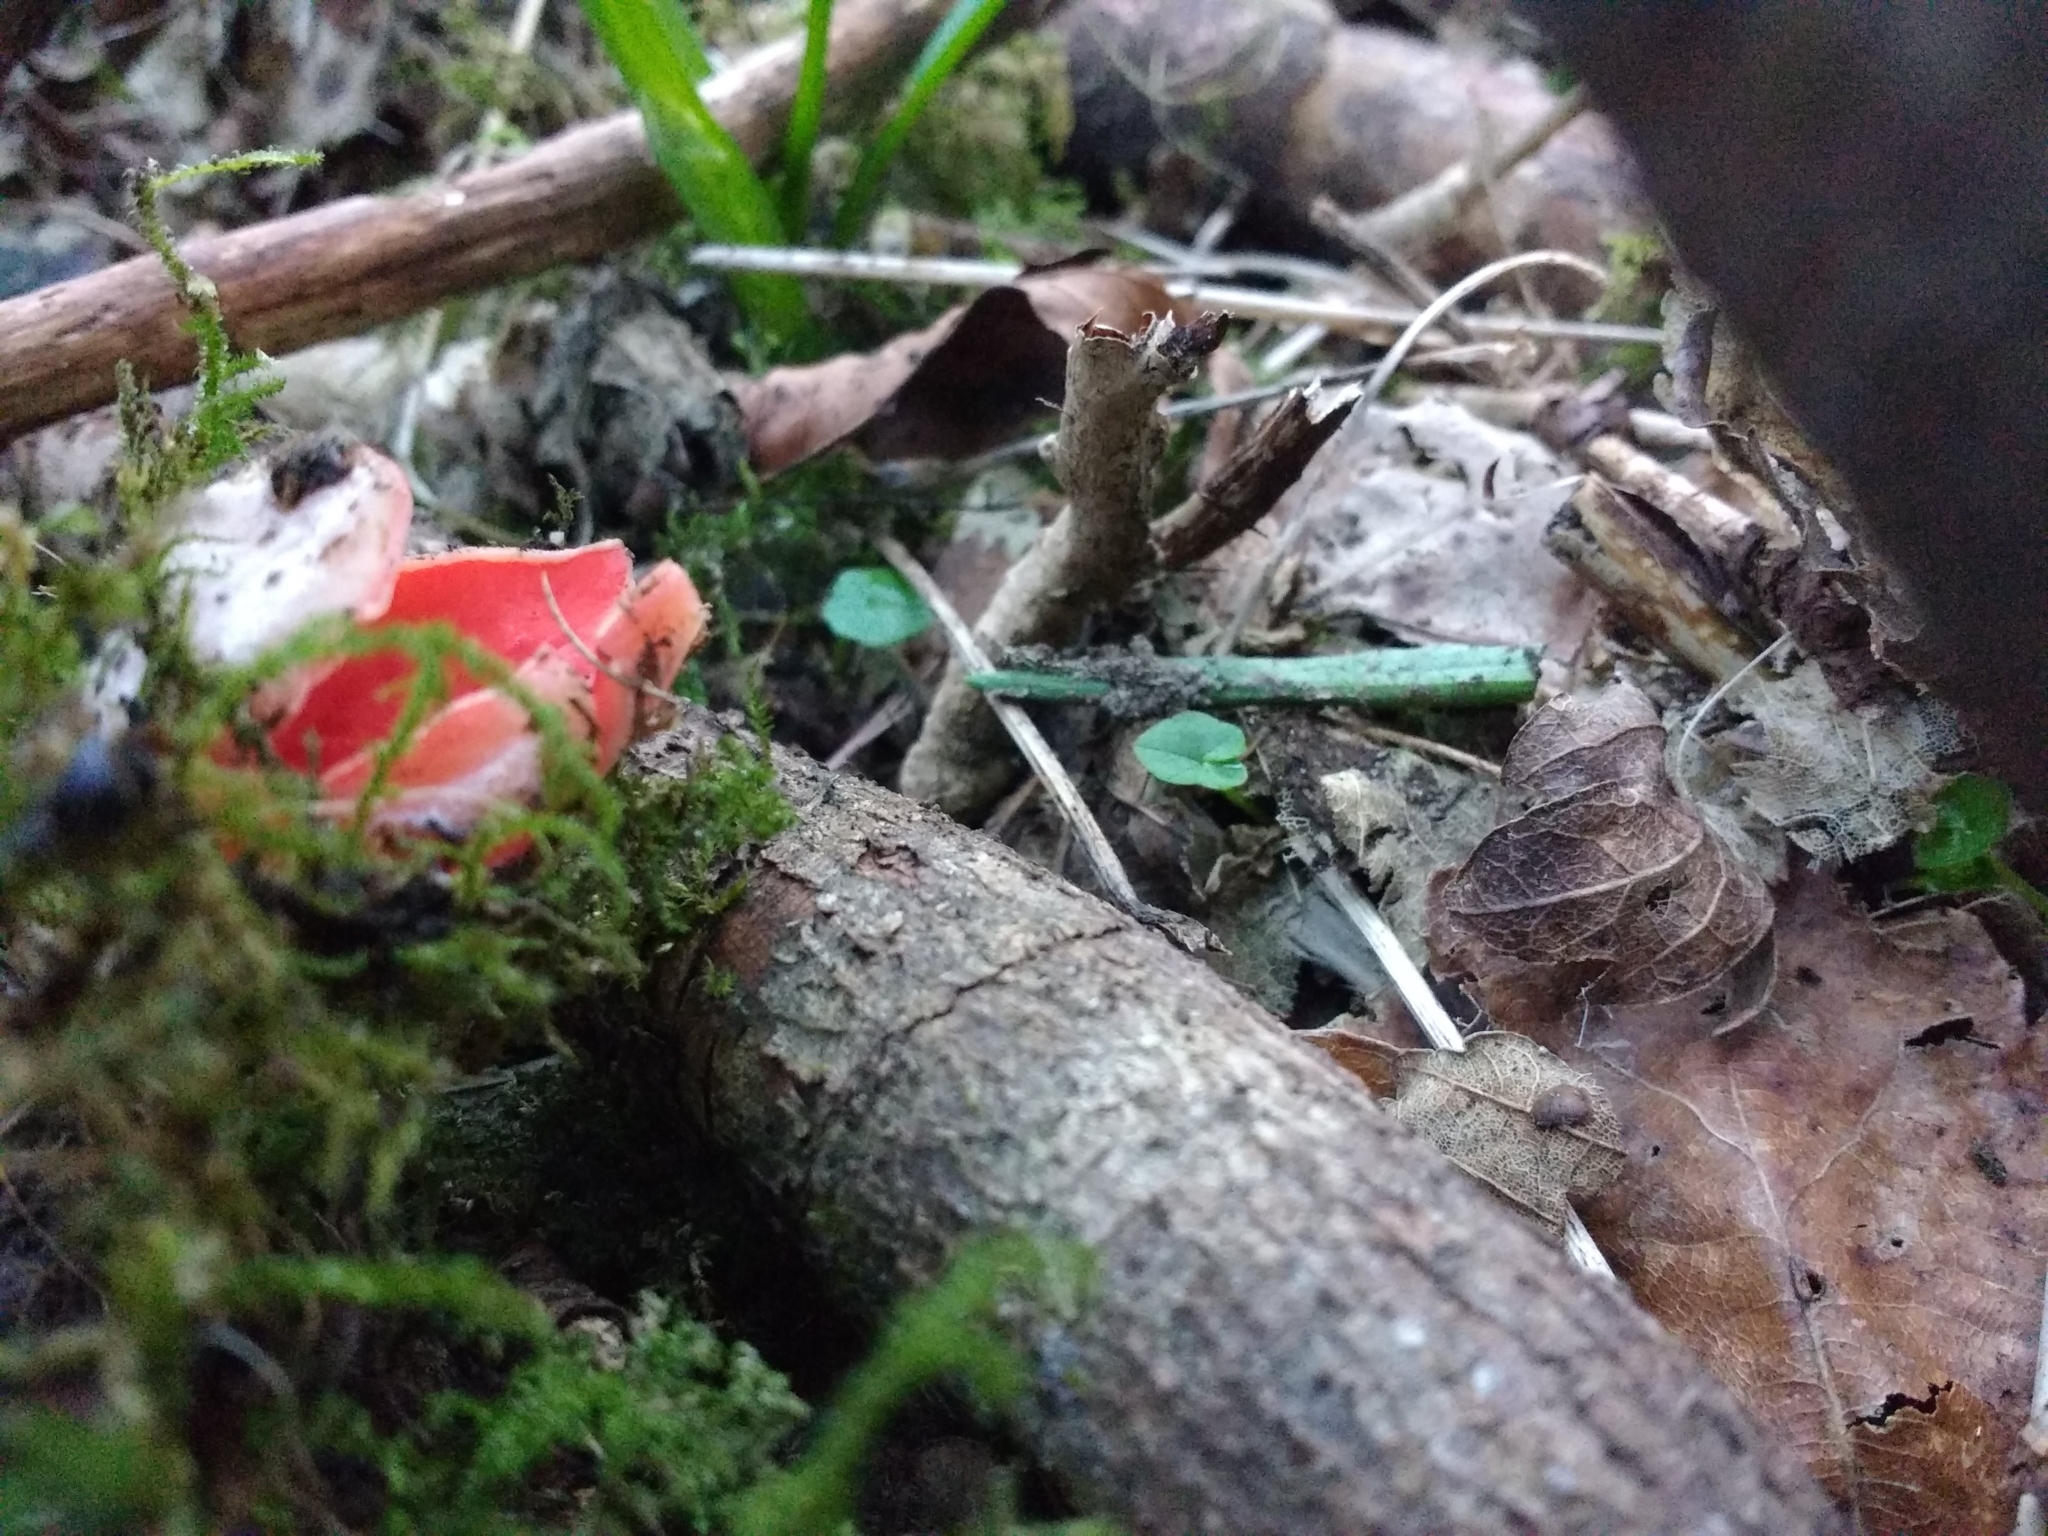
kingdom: Fungi
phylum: Ascomycota
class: Pezizomycetes
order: Pezizales
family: Sarcoscyphaceae
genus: Sarcoscypha
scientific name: Sarcoscypha
